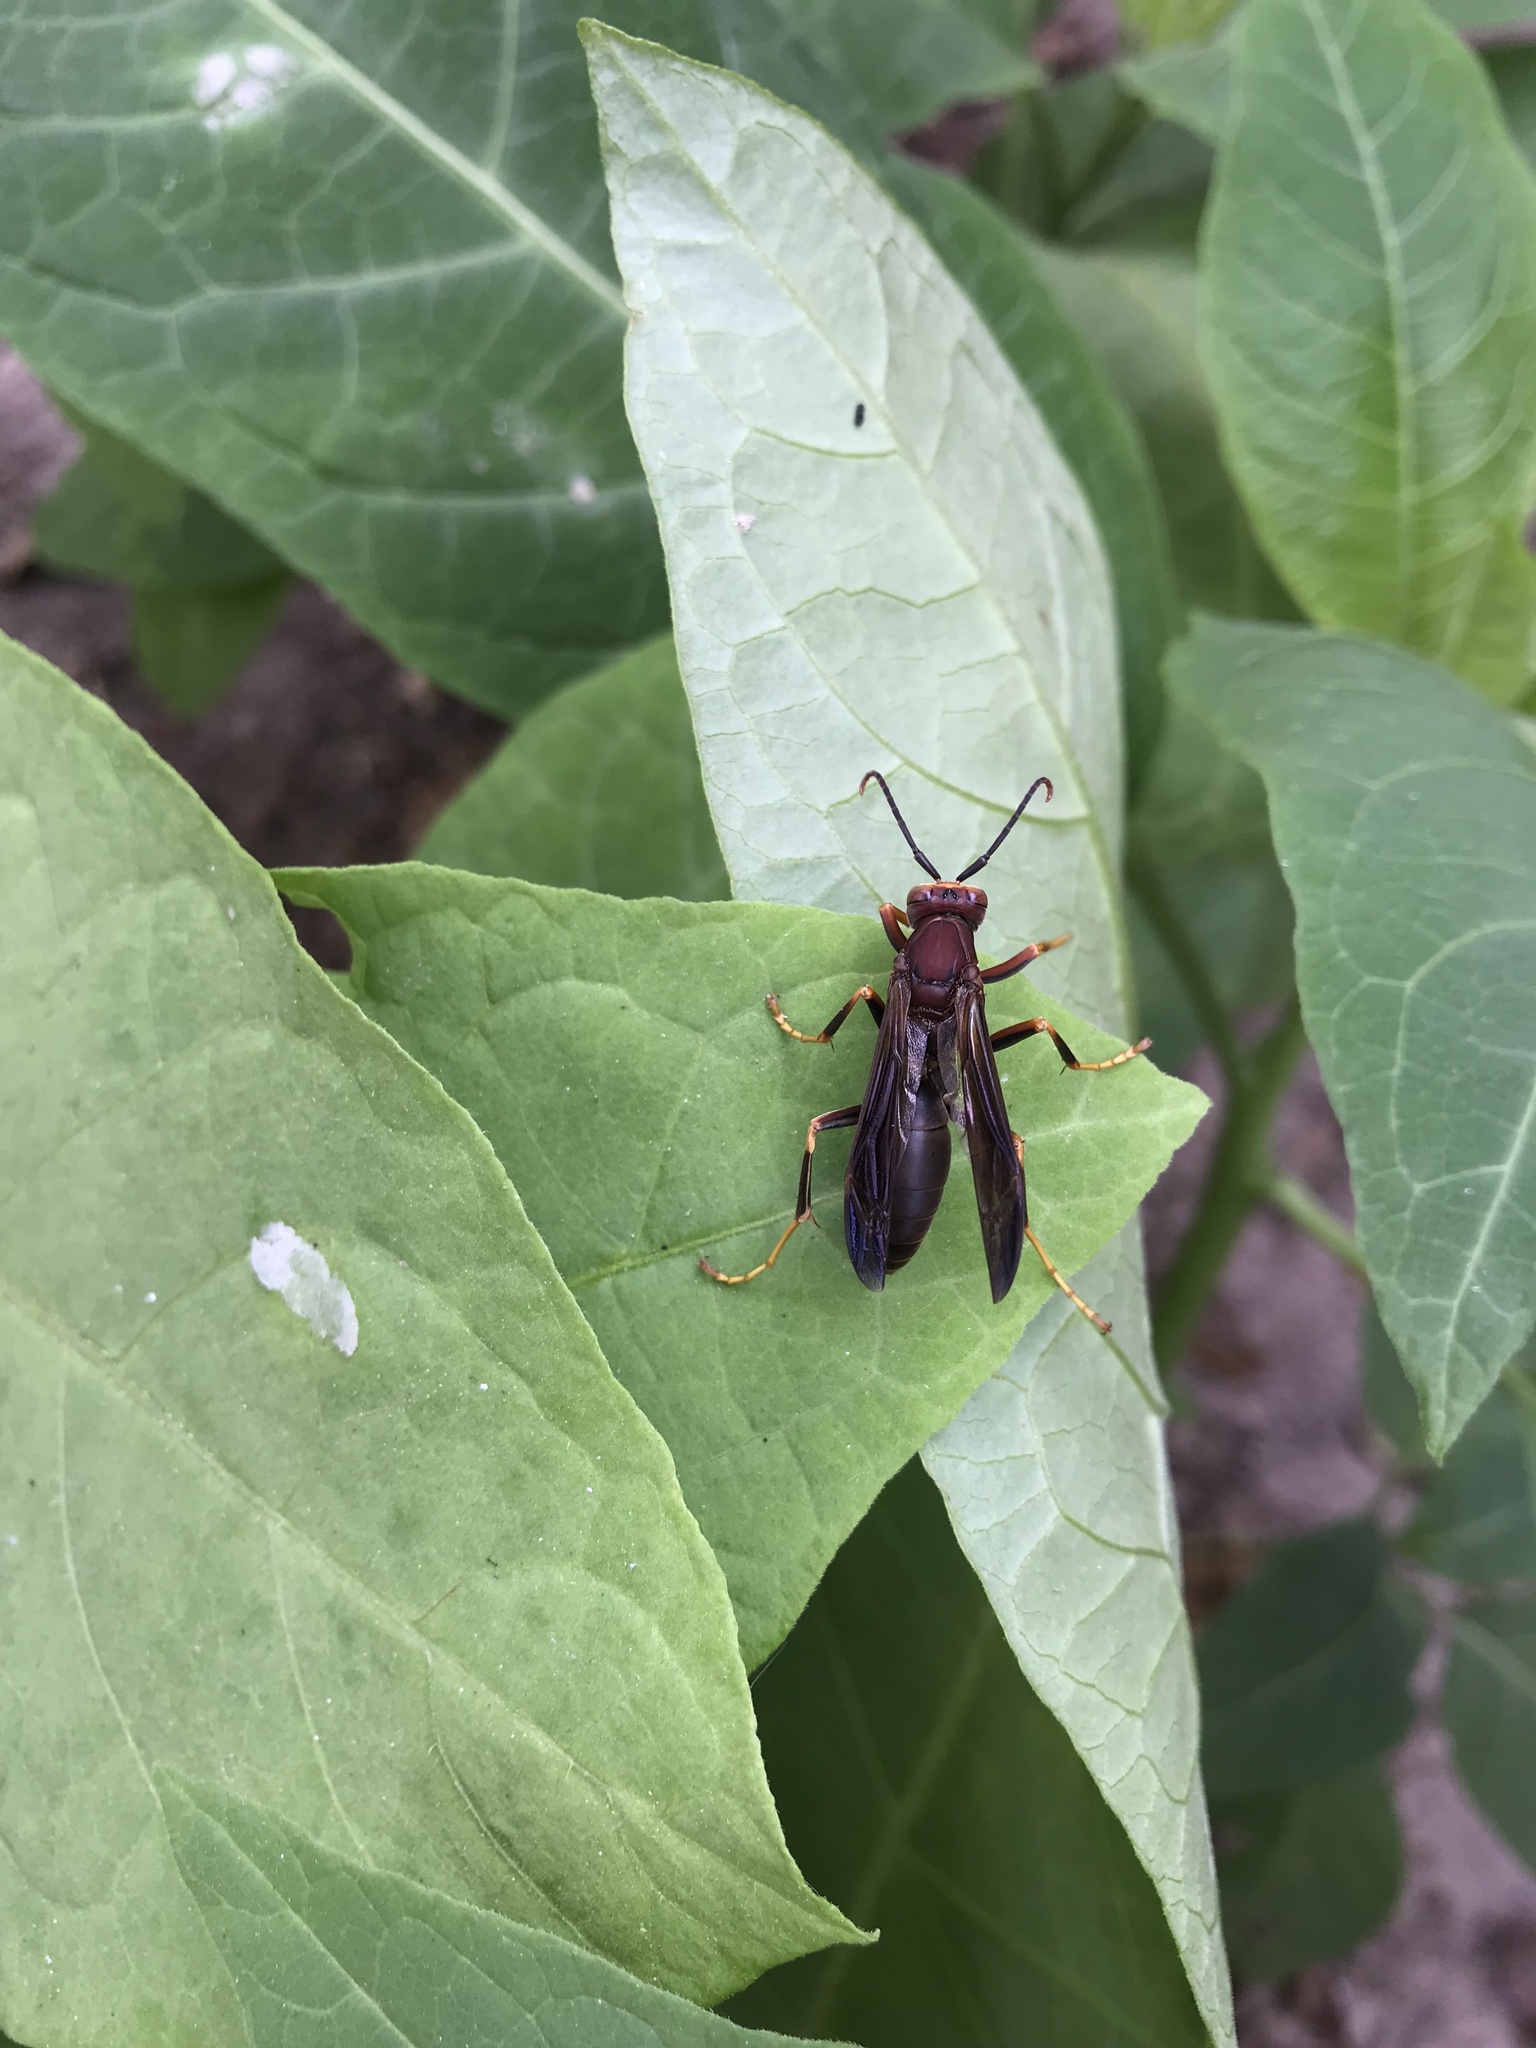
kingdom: Animalia
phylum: Arthropoda
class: Insecta
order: Hymenoptera
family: Eumenidae
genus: Polistes
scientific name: Polistes metricus
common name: Metric paper wasp
